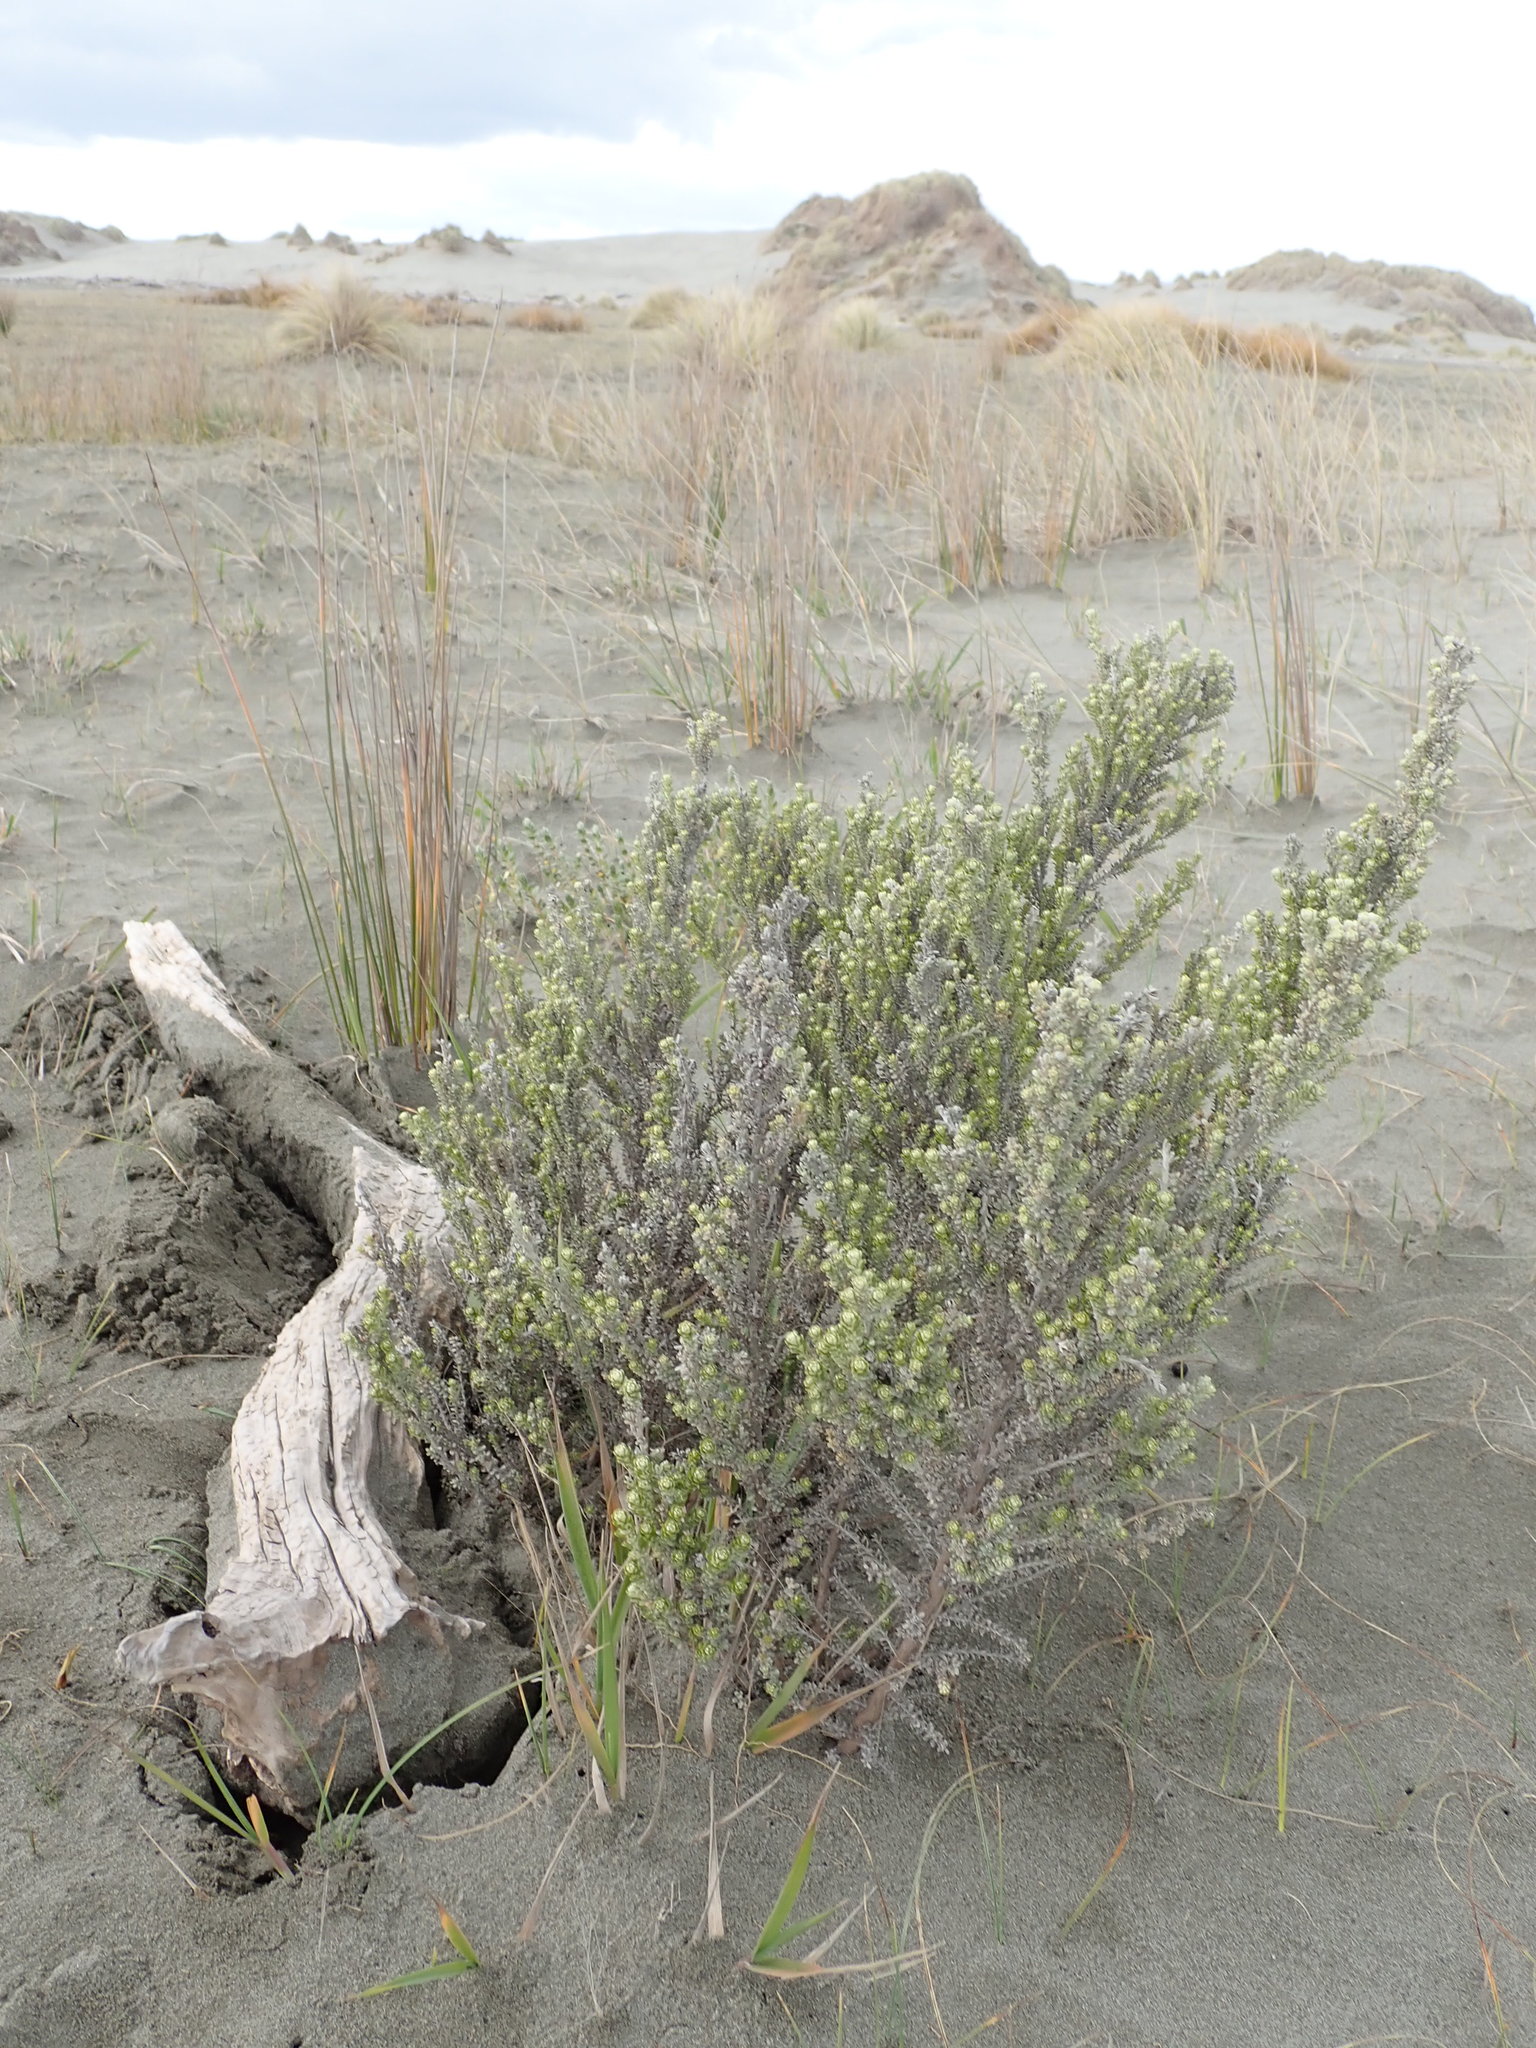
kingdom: Plantae
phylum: Tracheophyta
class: Magnoliopsida
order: Asterales
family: Asteraceae
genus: Ozothamnus
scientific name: Ozothamnus leptophyllus
